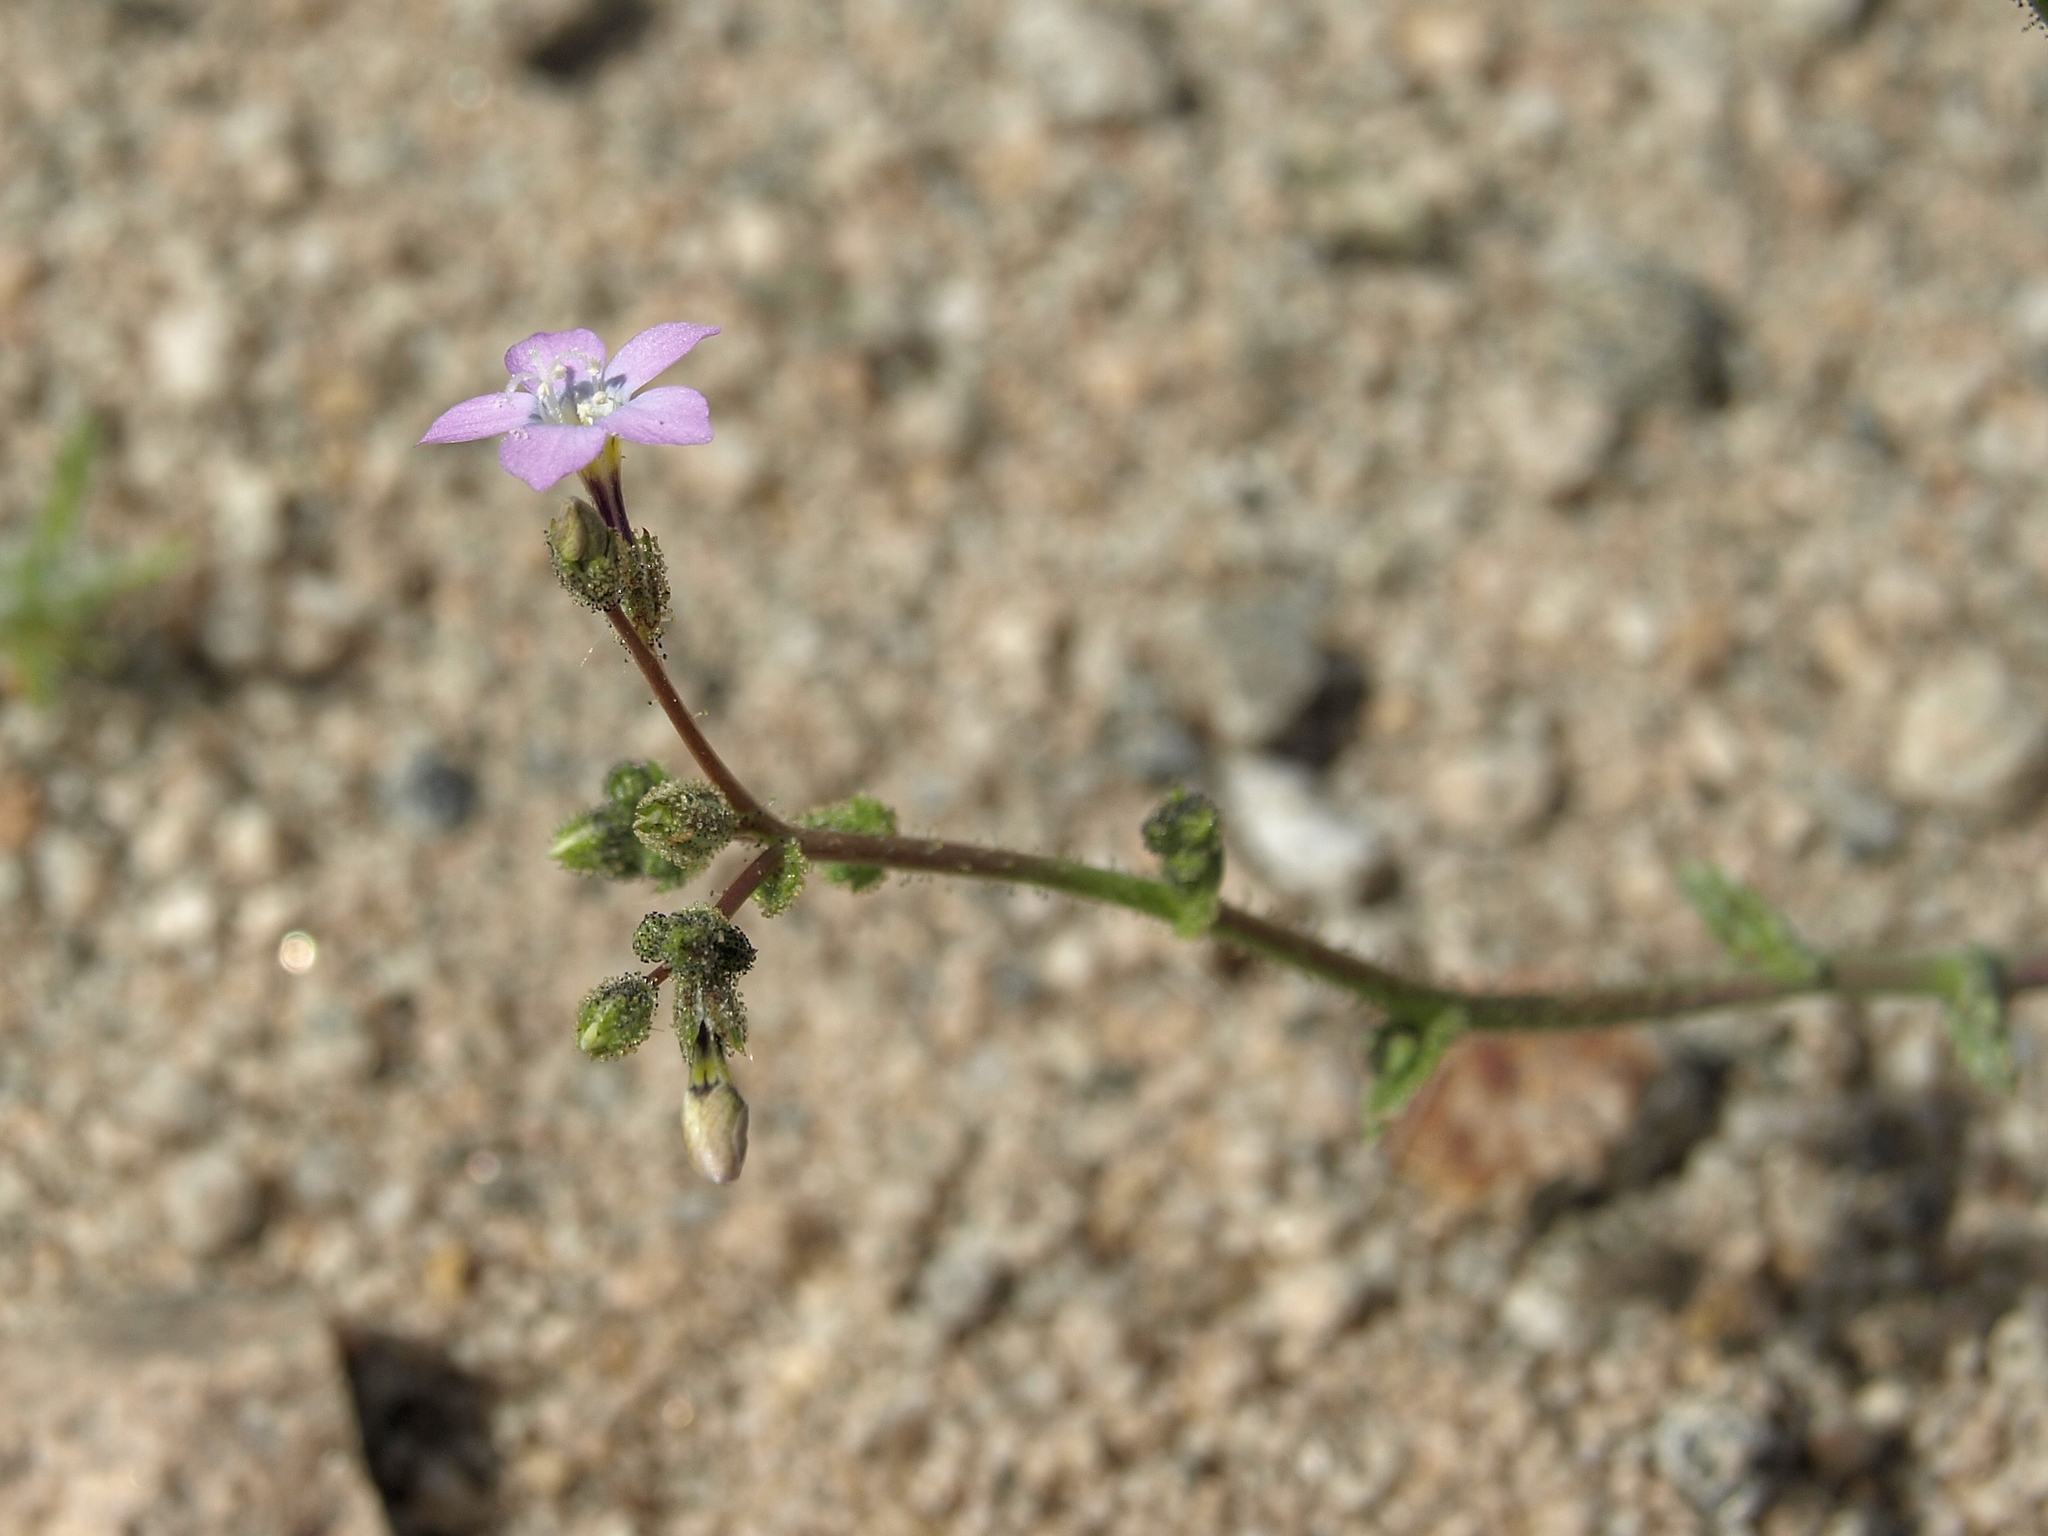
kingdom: Plantae
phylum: Tracheophyta
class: Magnoliopsida
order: Ericales
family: Polemoniaceae
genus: Gilia
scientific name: Gilia sinuata
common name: Rosy gilia
